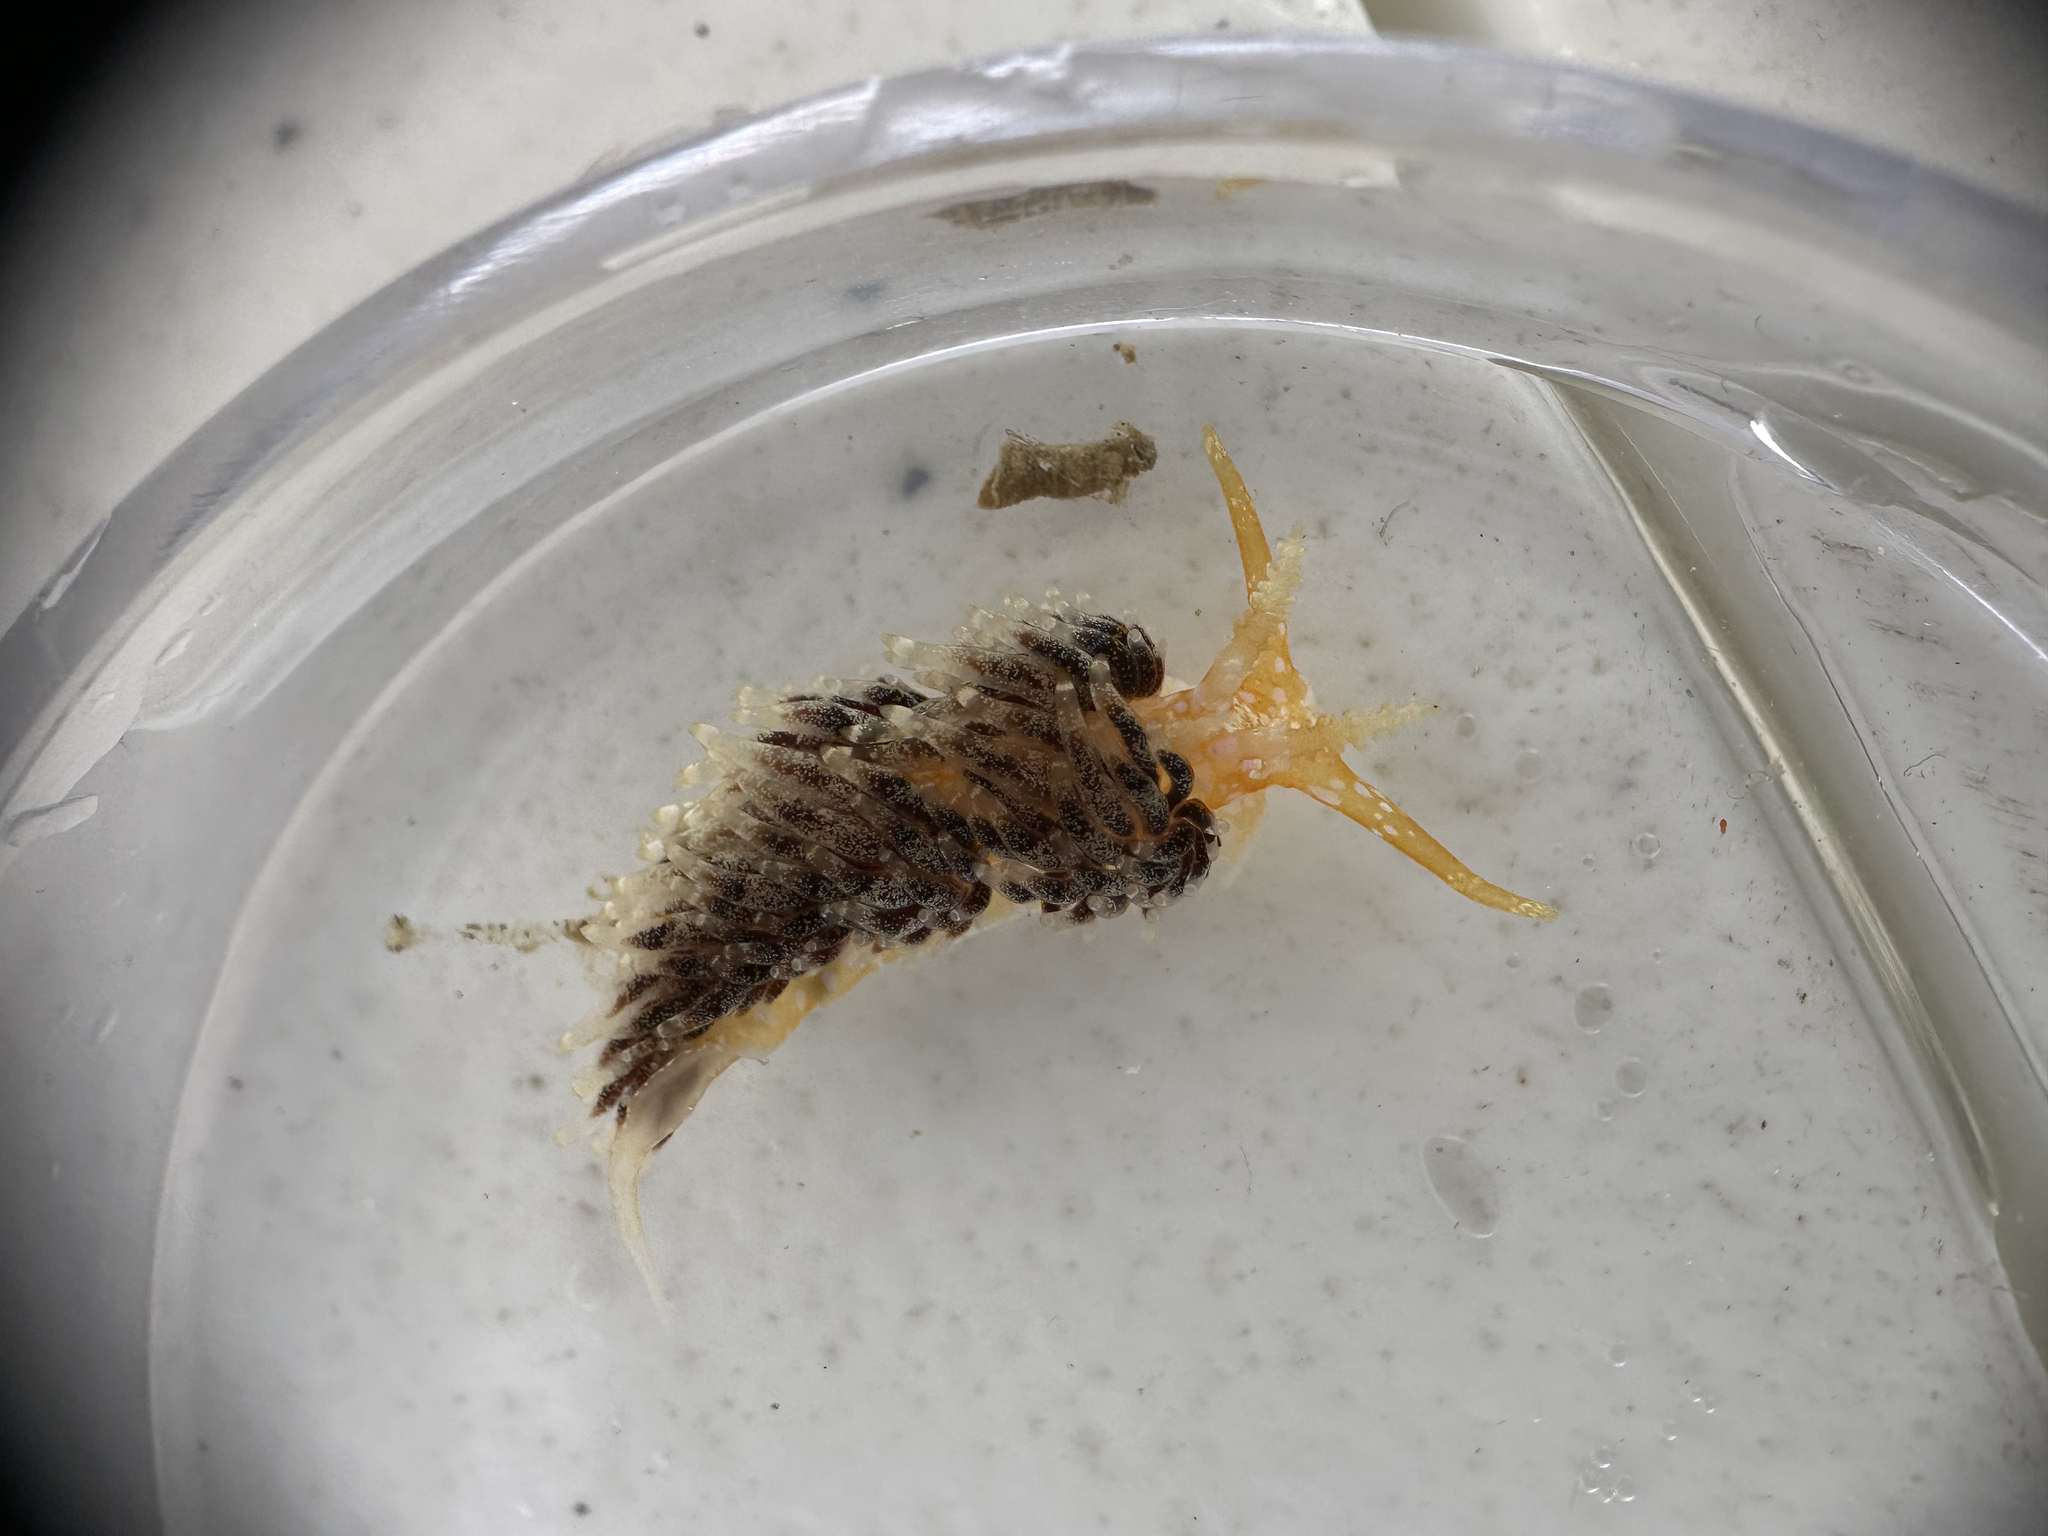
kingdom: Animalia
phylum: Mollusca
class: Gastropoda
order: Nudibranchia
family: Facelinidae
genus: Austraeolis
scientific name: Austraeolis ornata
